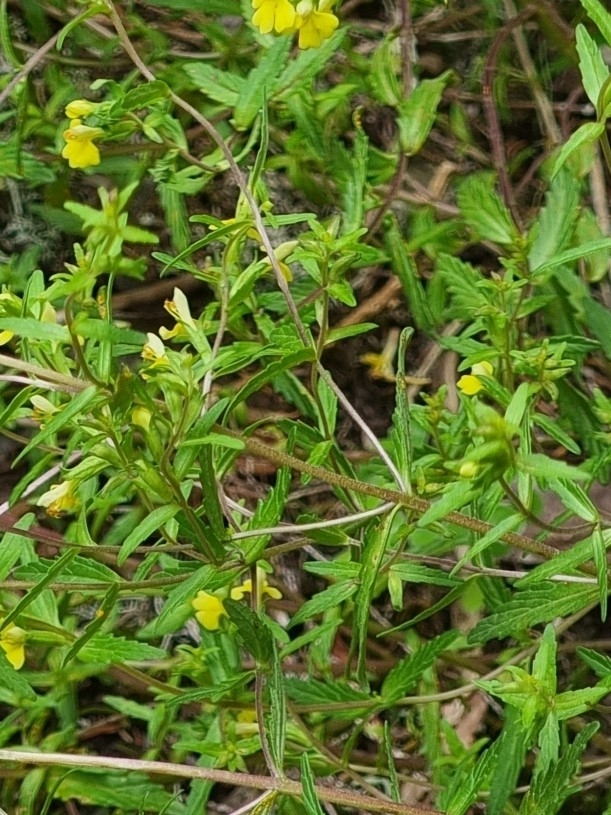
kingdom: Plantae
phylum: Tracheophyta
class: Magnoliopsida
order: Lamiales
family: Orobanchaceae
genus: Odontites
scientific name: Odontites hollianus
